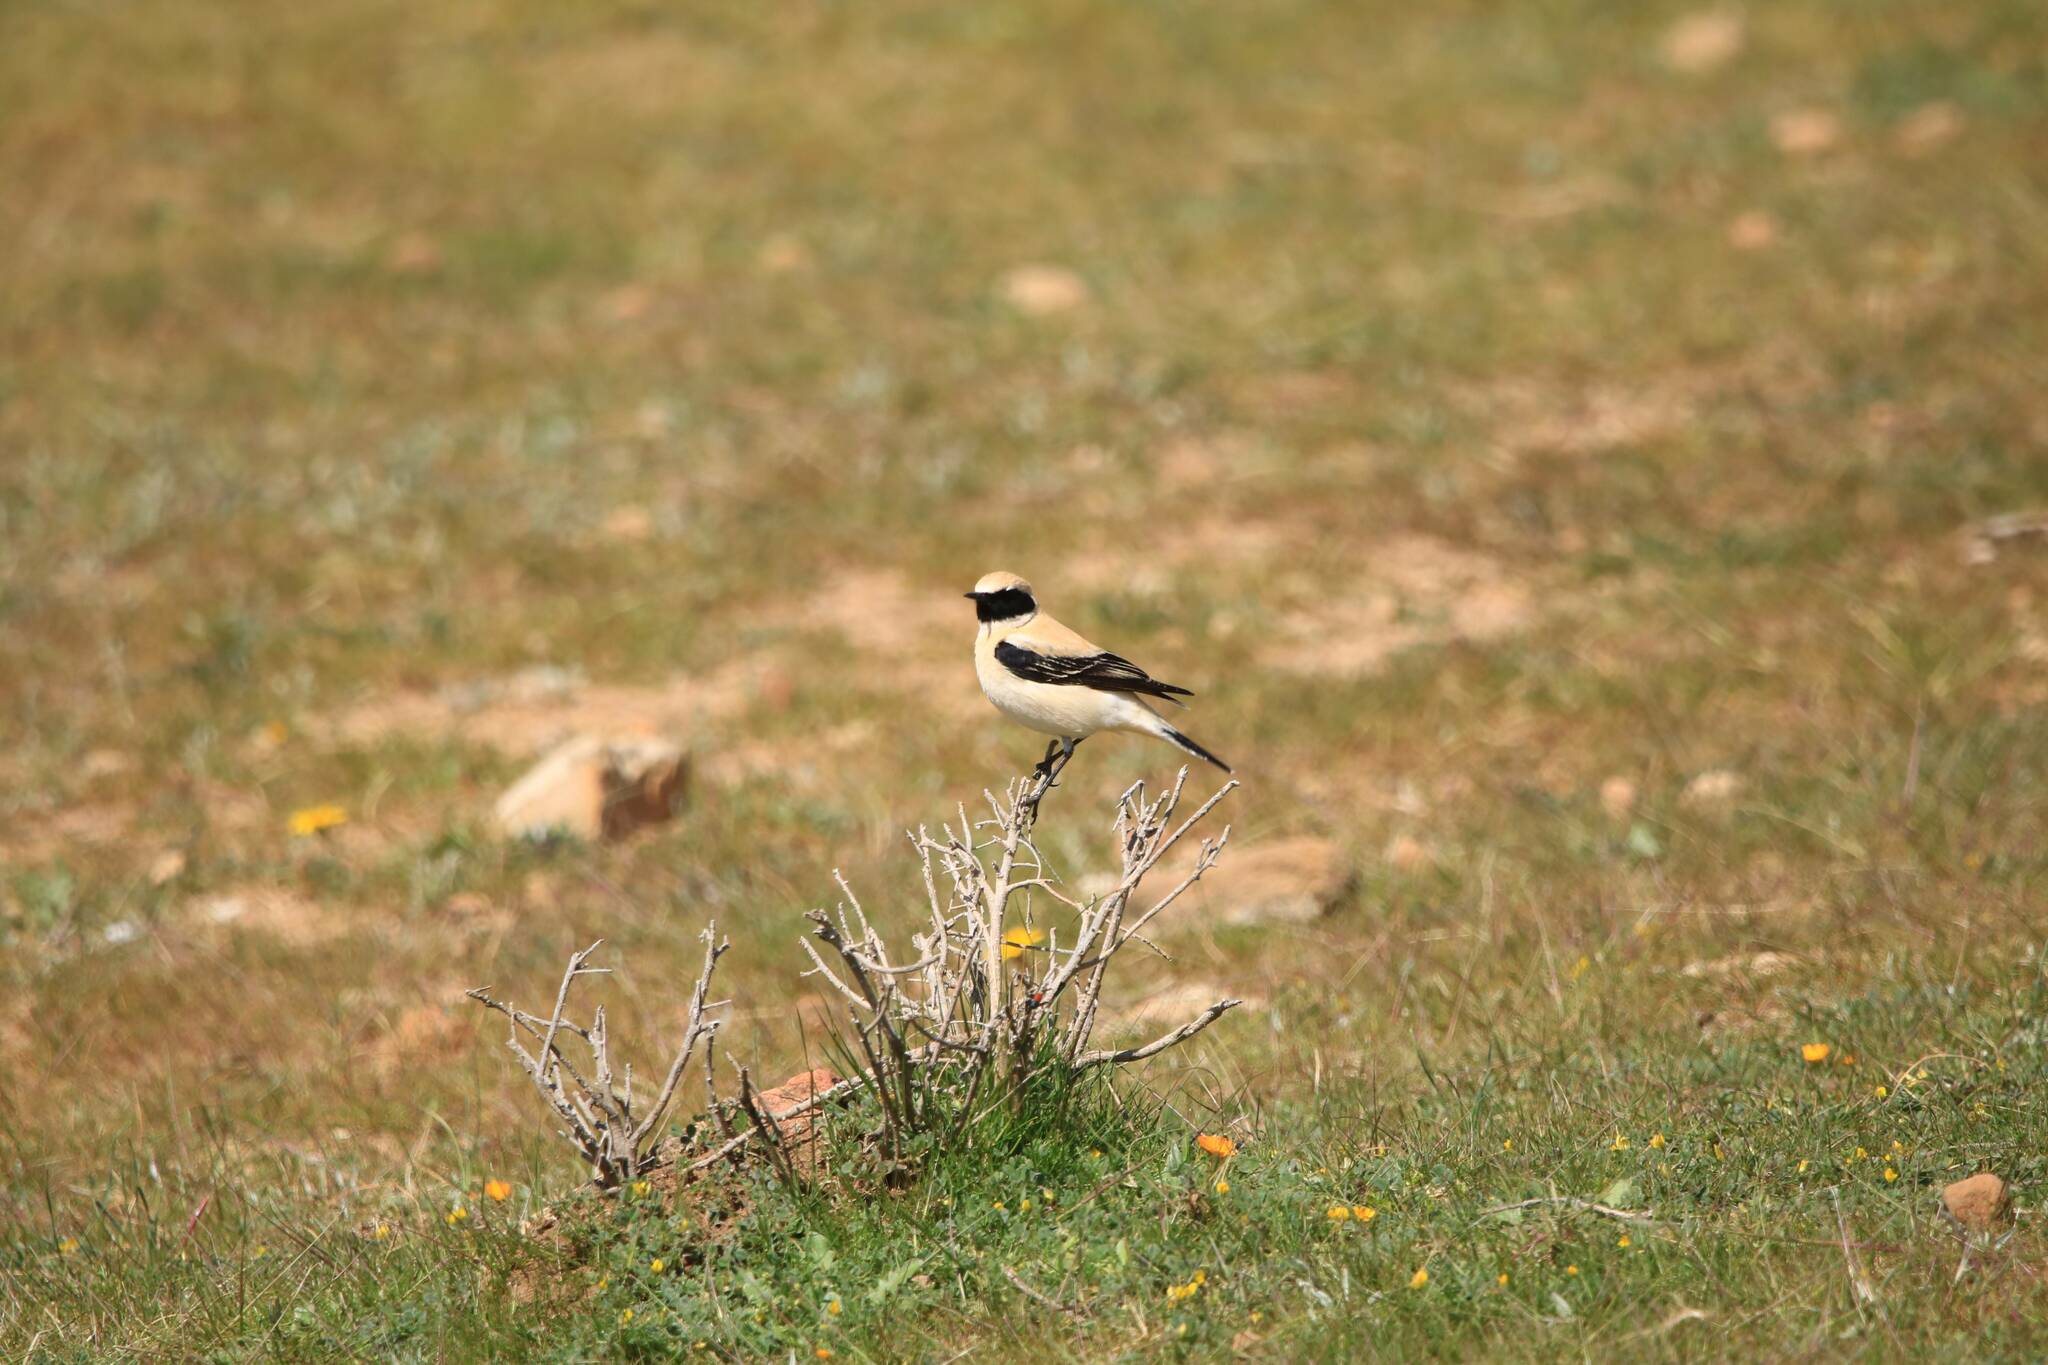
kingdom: Animalia
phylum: Chordata
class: Aves
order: Passeriformes
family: Muscicapidae
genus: Oenanthe
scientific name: Oenanthe hispanica
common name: Black-eared wheatear
